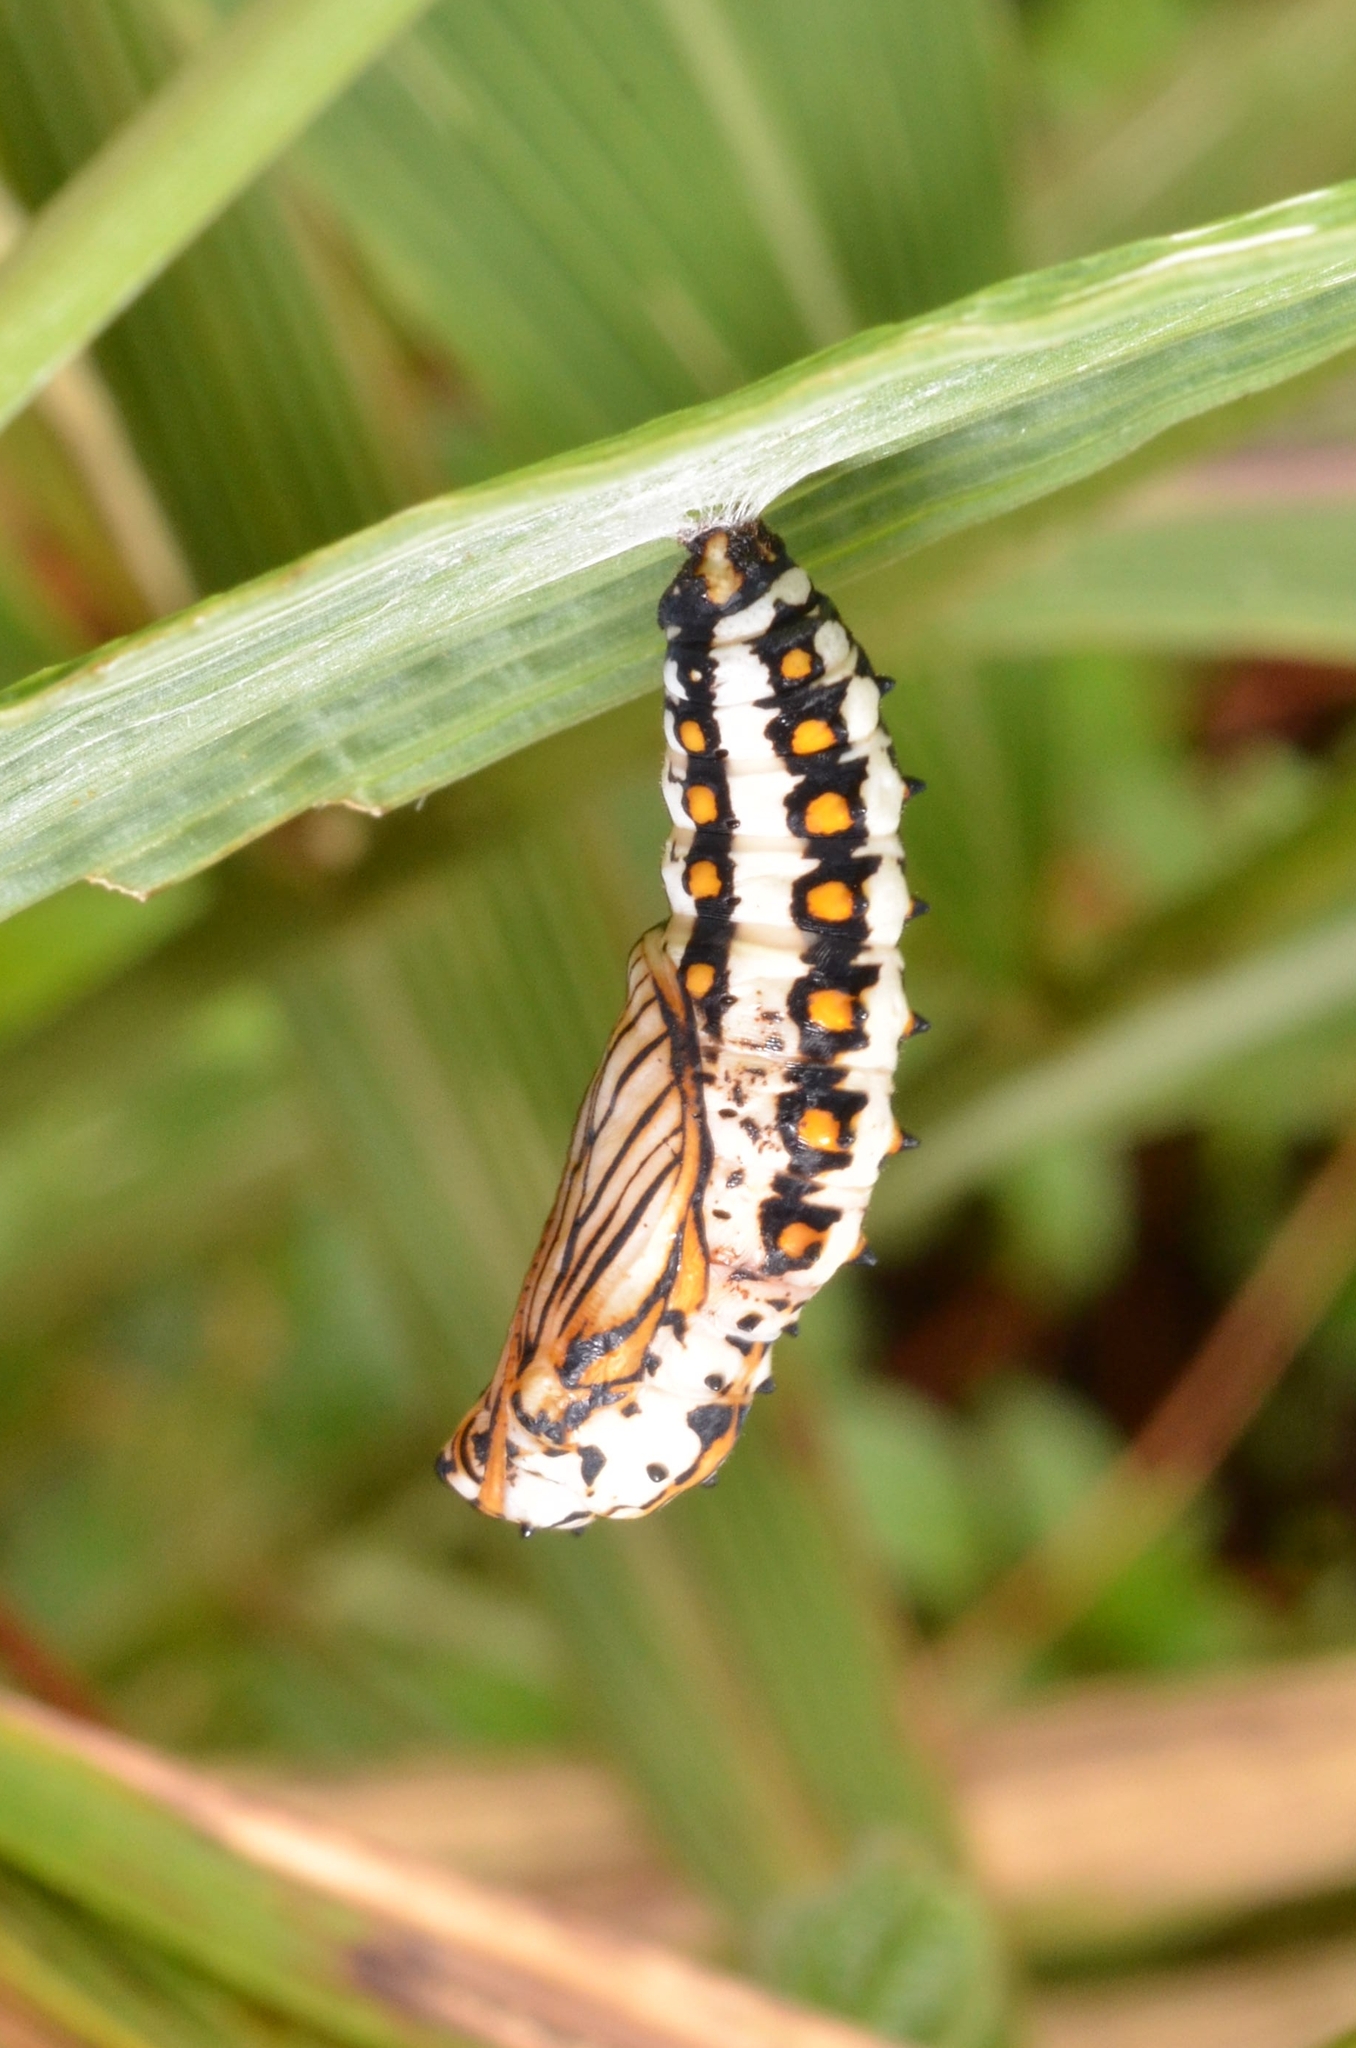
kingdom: Animalia
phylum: Arthropoda
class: Insecta
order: Lepidoptera
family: Nymphalidae
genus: Acraea
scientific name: Acraea Telchinia issoria
